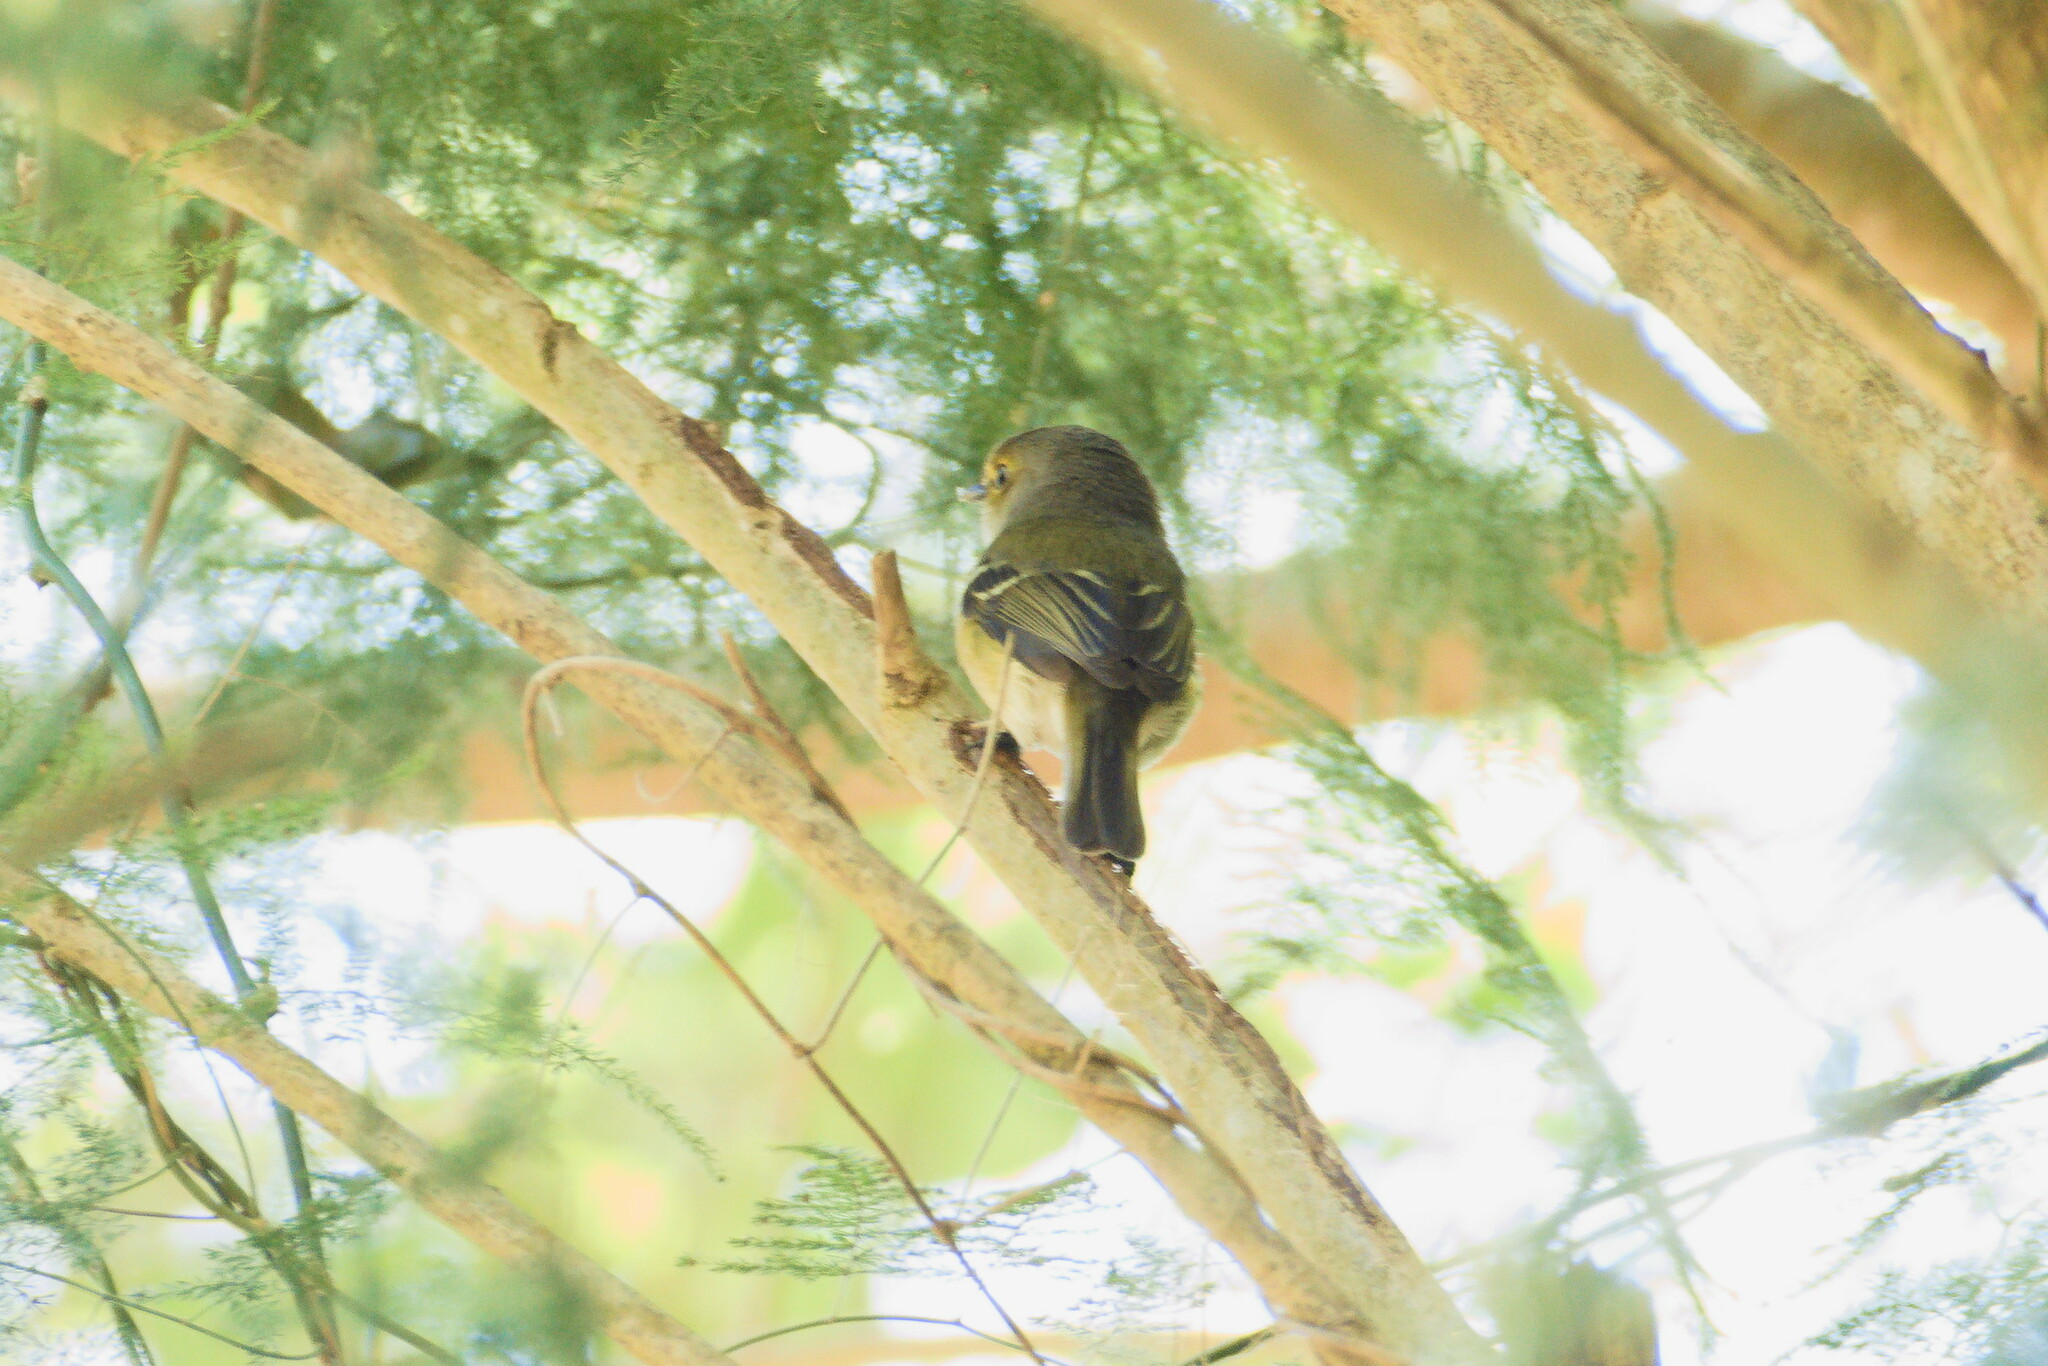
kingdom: Animalia
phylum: Chordata
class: Aves
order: Passeriformes
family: Vireonidae
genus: Vireo
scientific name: Vireo griseus
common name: White-eyed vireo
